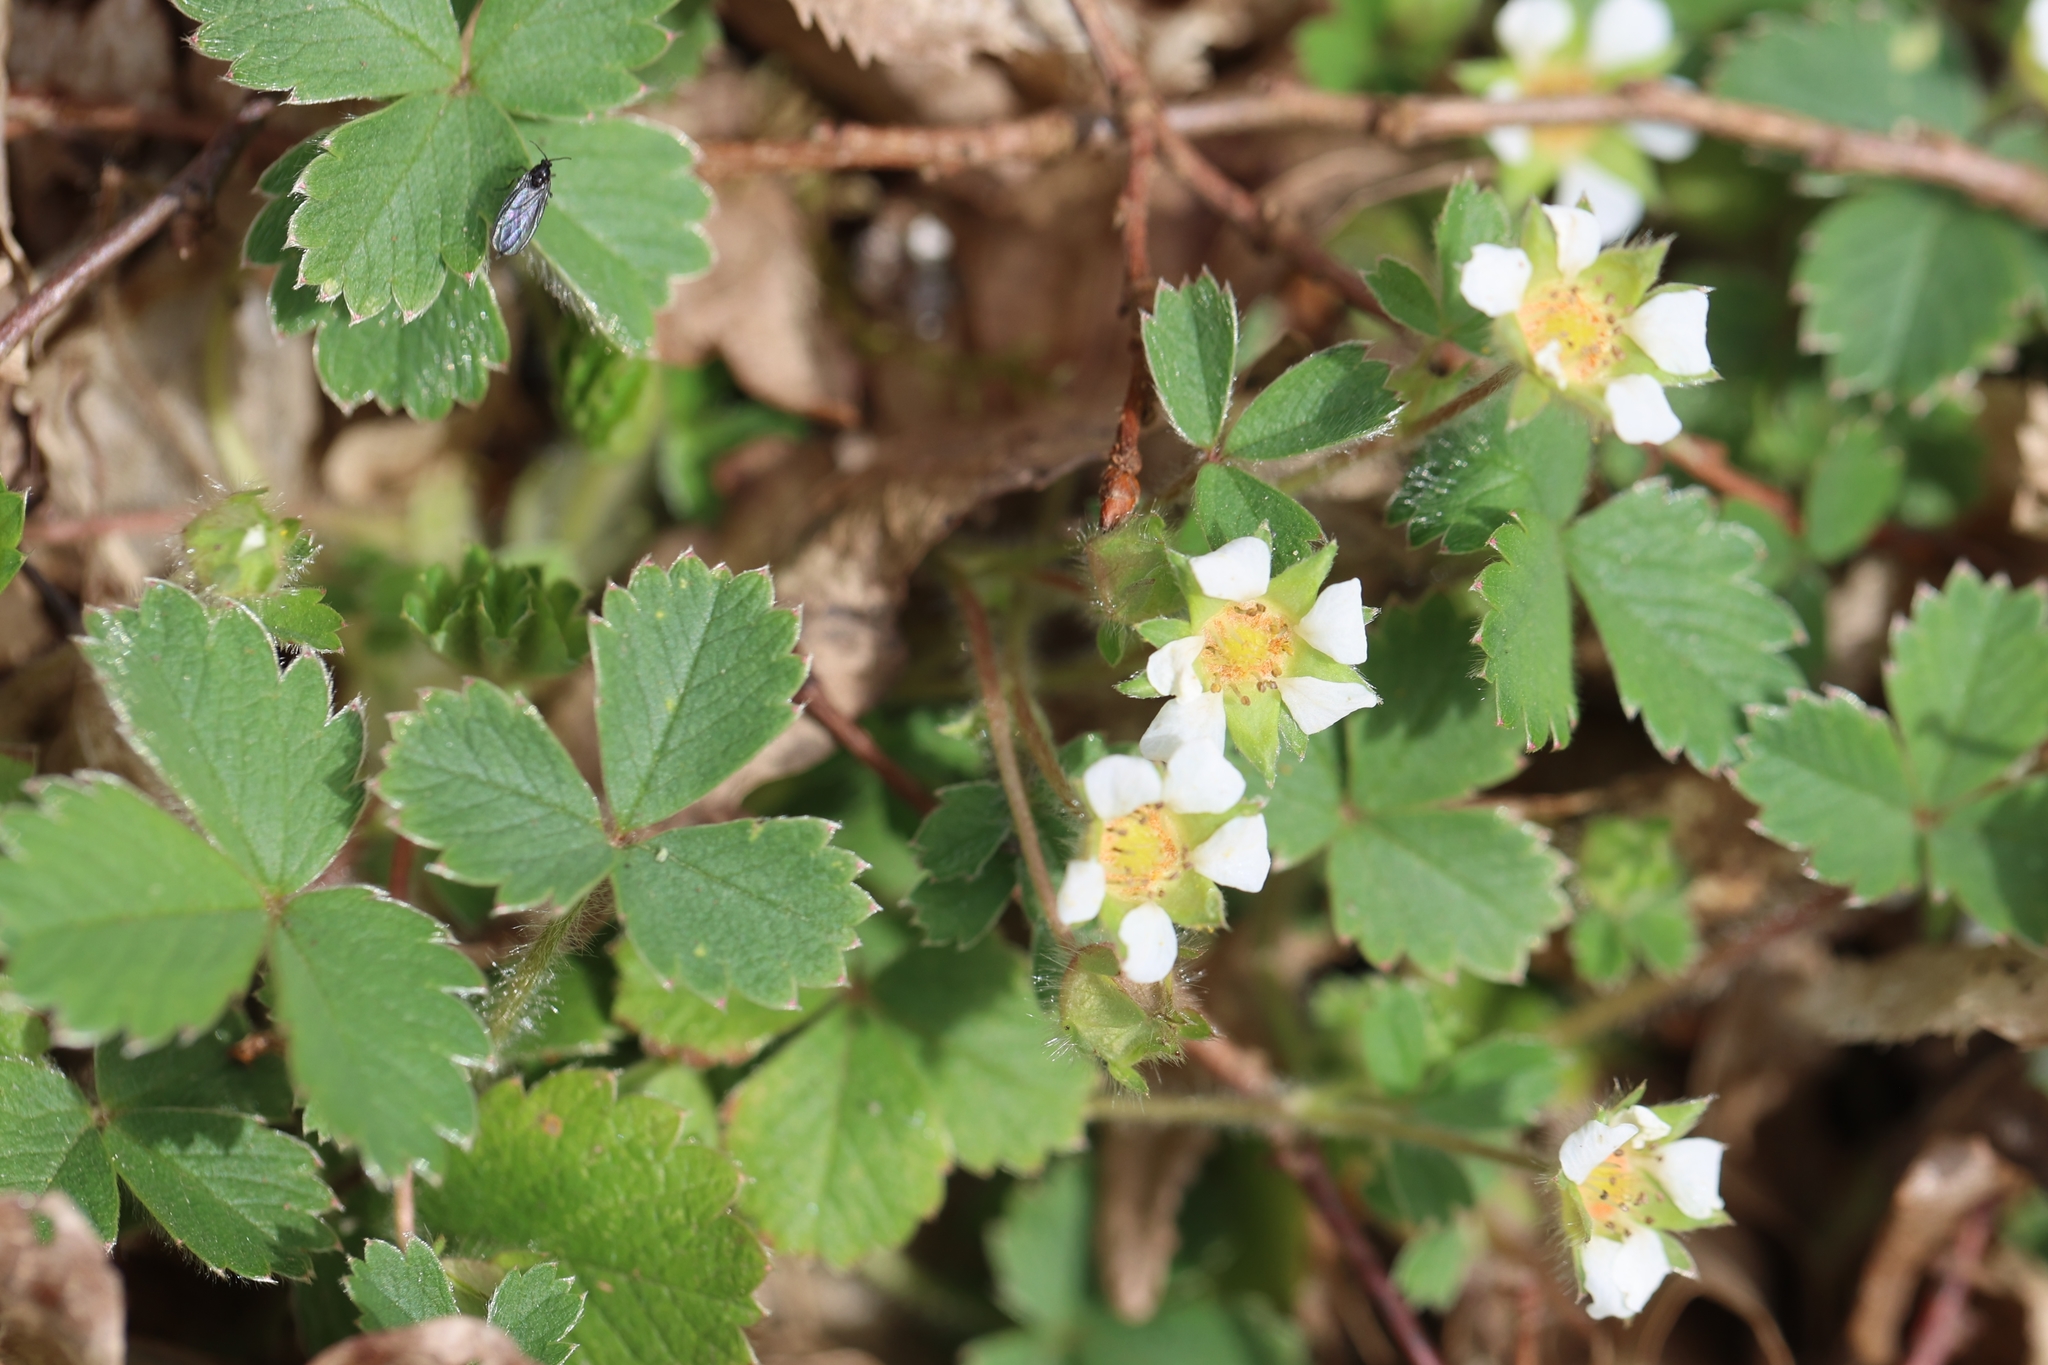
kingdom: Plantae
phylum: Tracheophyta
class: Magnoliopsida
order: Rosales
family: Rosaceae
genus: Potentilla
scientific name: Potentilla sterilis
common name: Barren strawberry
